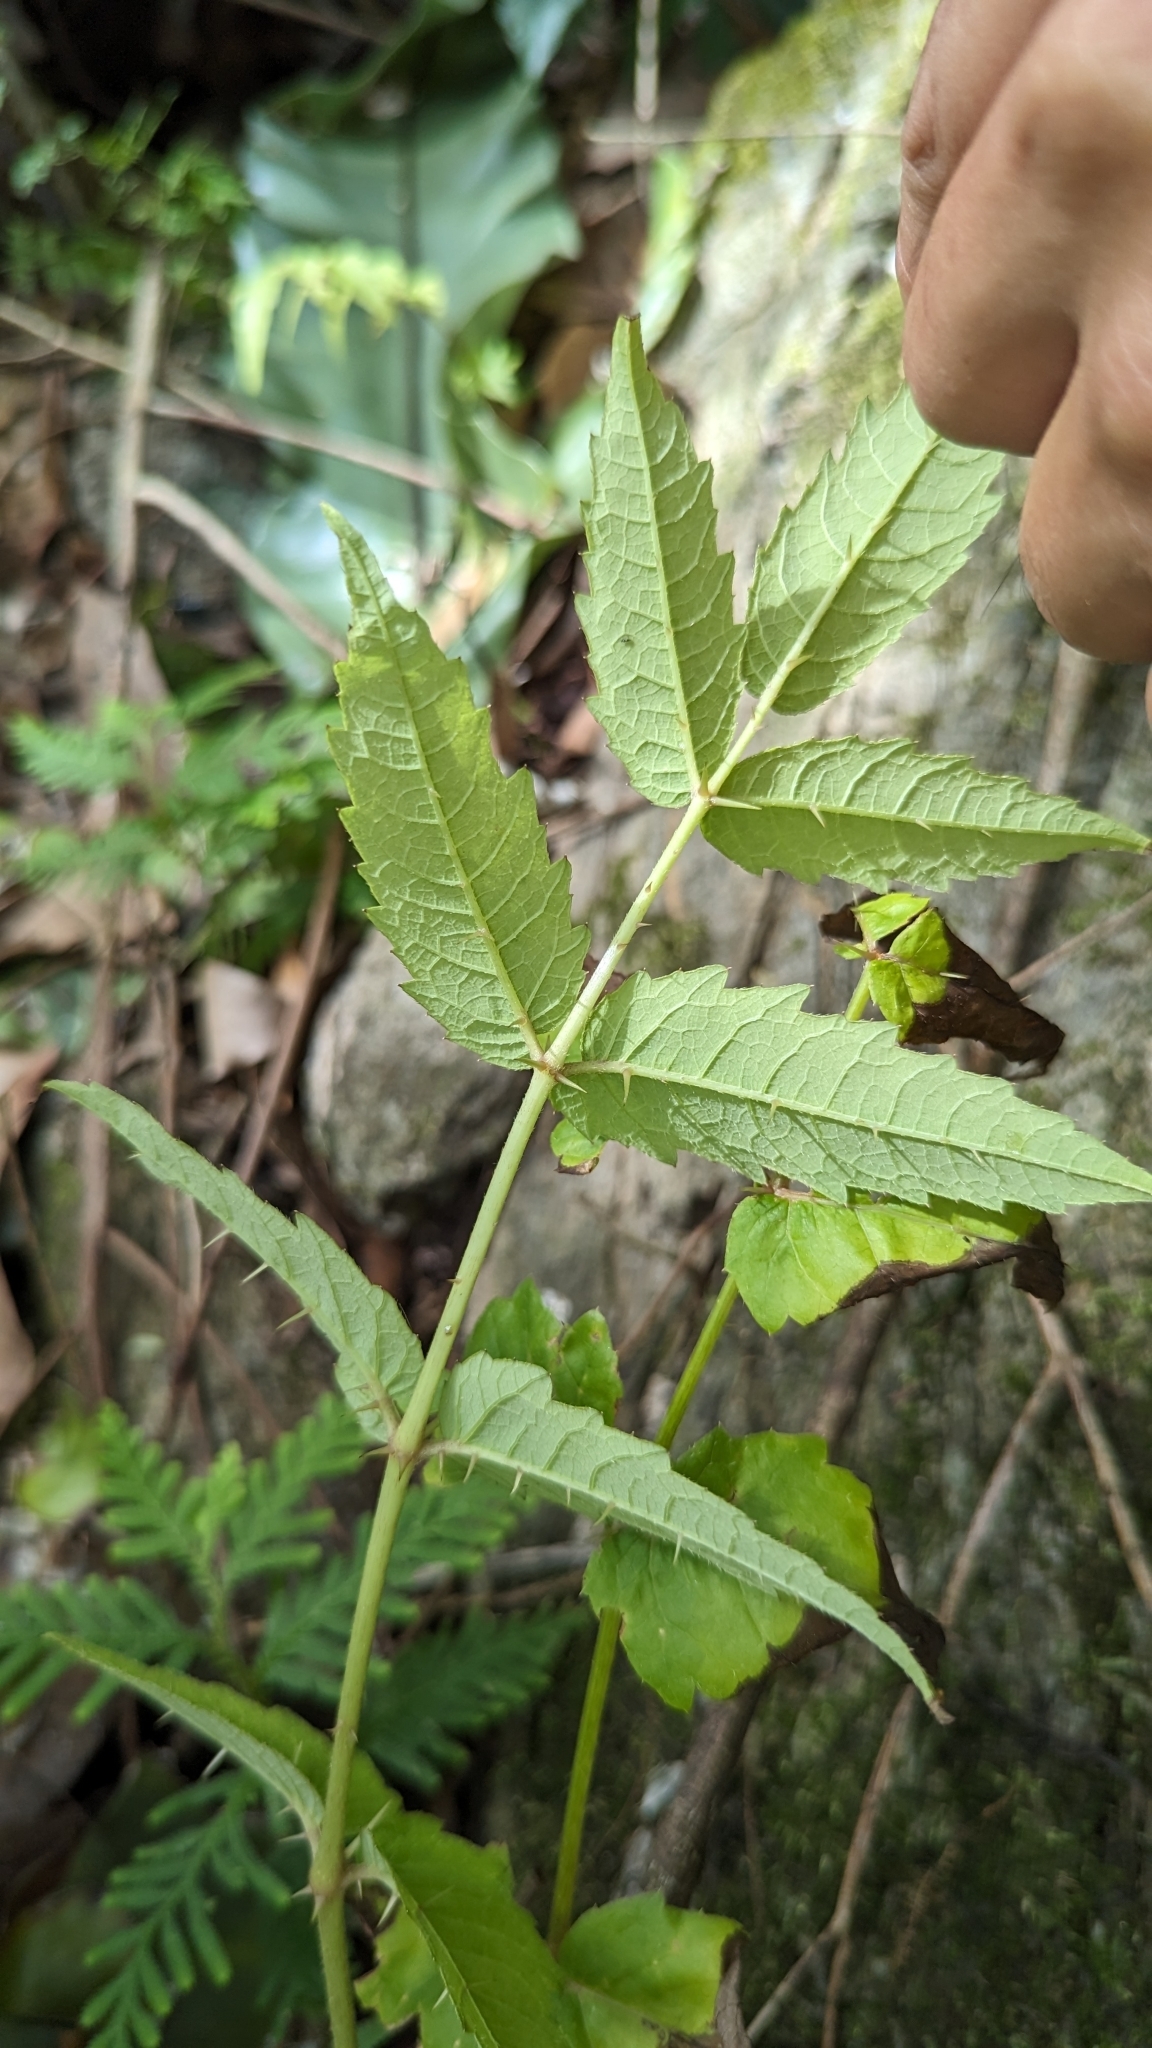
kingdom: Plantae
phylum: Tracheophyta
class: Magnoliopsida
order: Apiales
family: Araliaceae
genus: Aralia
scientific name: Aralia decaisneana
